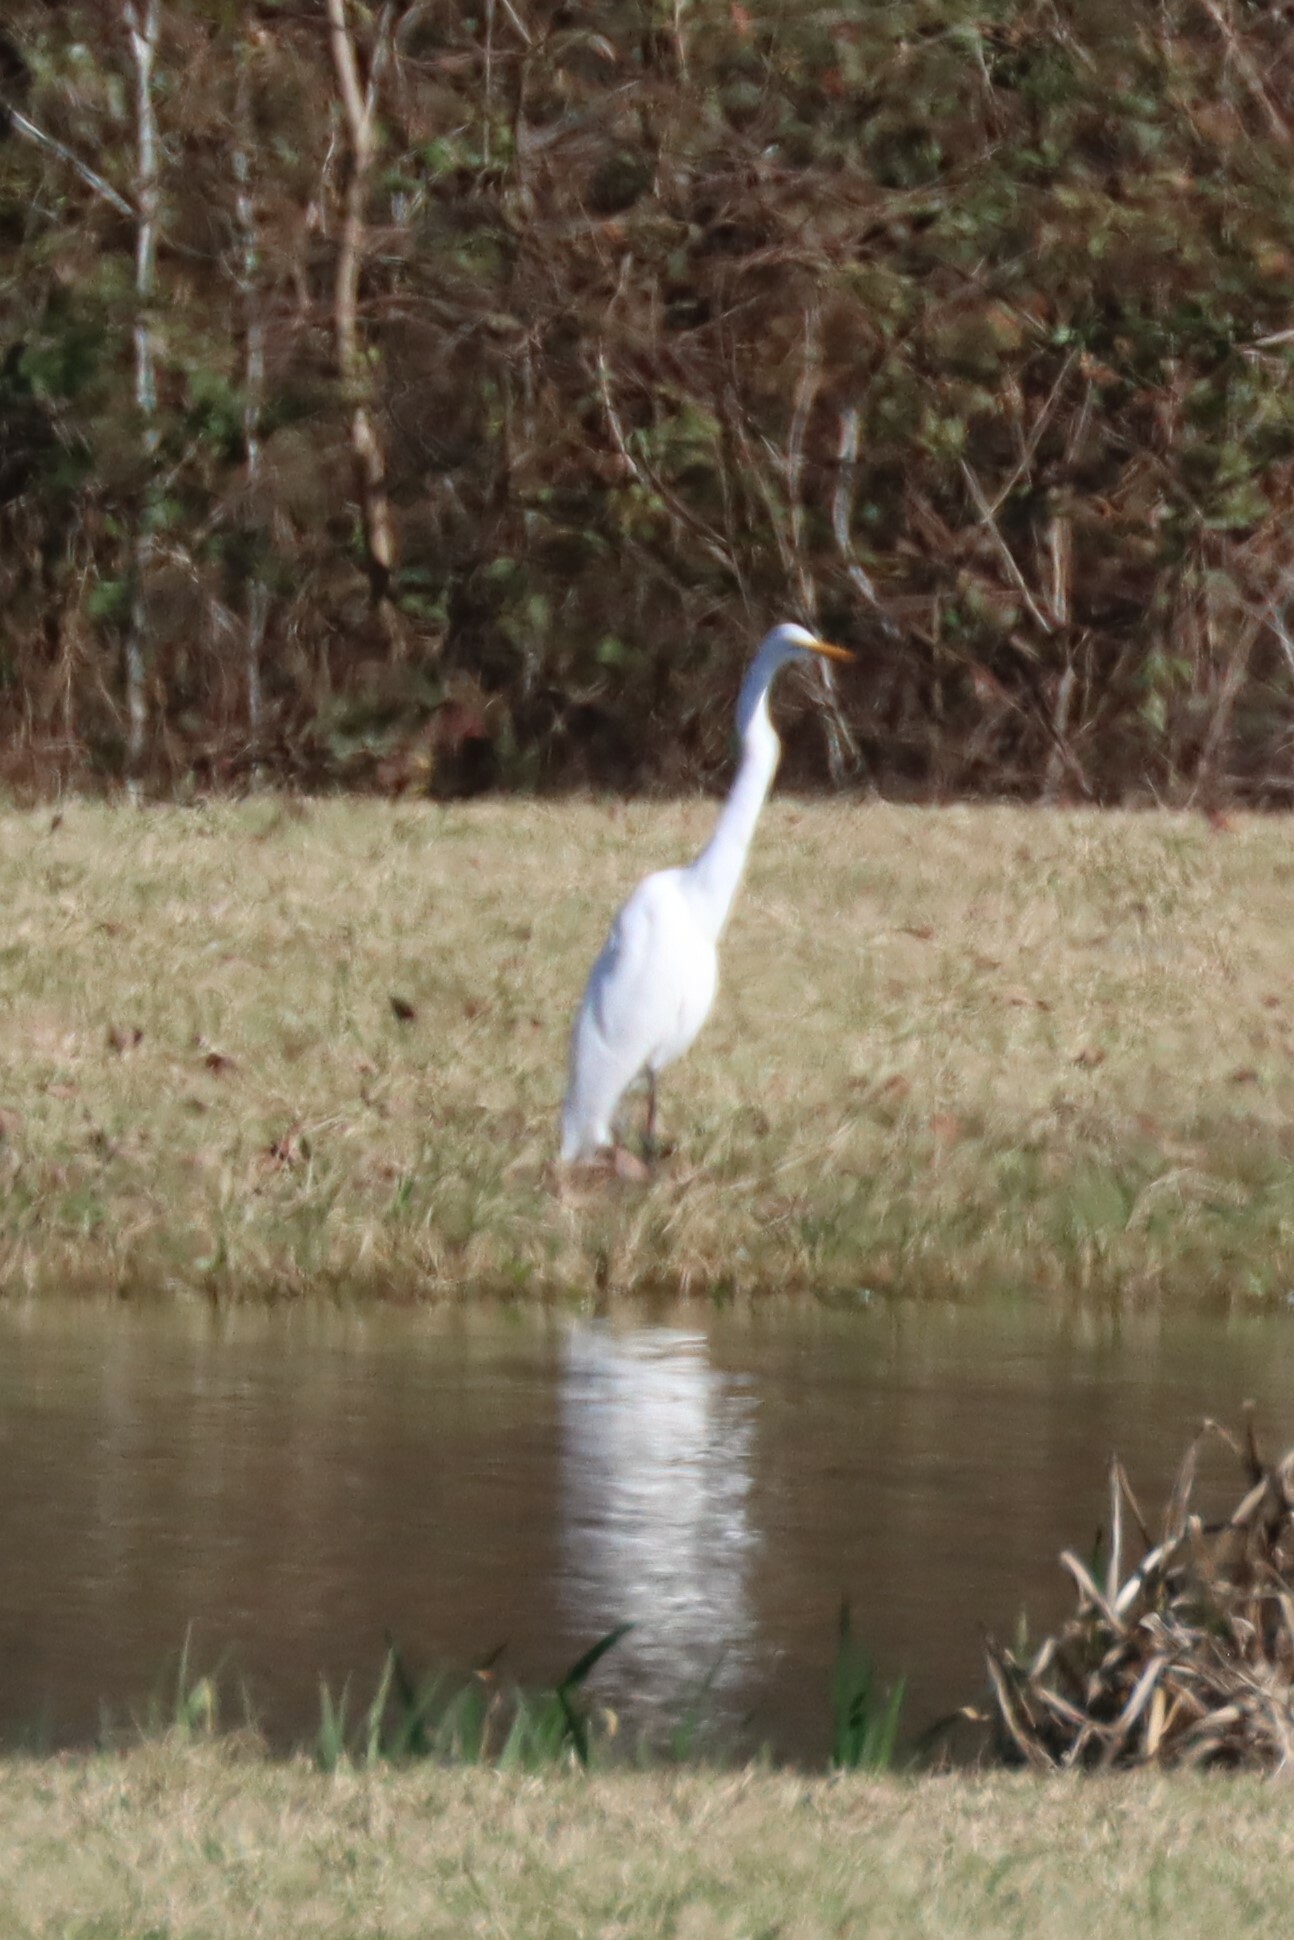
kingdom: Animalia
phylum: Chordata
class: Aves
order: Pelecaniformes
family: Ardeidae
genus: Ardea
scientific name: Ardea alba
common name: Great egret
